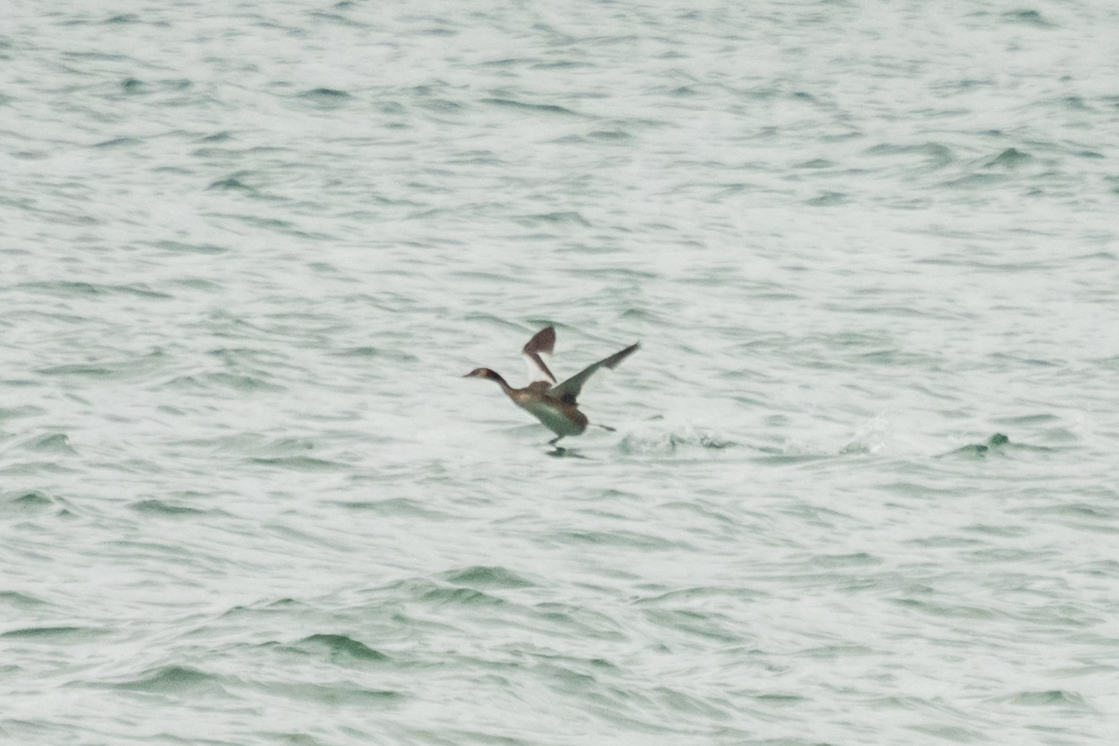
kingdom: Animalia
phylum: Chordata
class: Aves
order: Podicipediformes
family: Podicipedidae
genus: Podiceps
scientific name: Podiceps cristatus
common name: Great crested grebe
